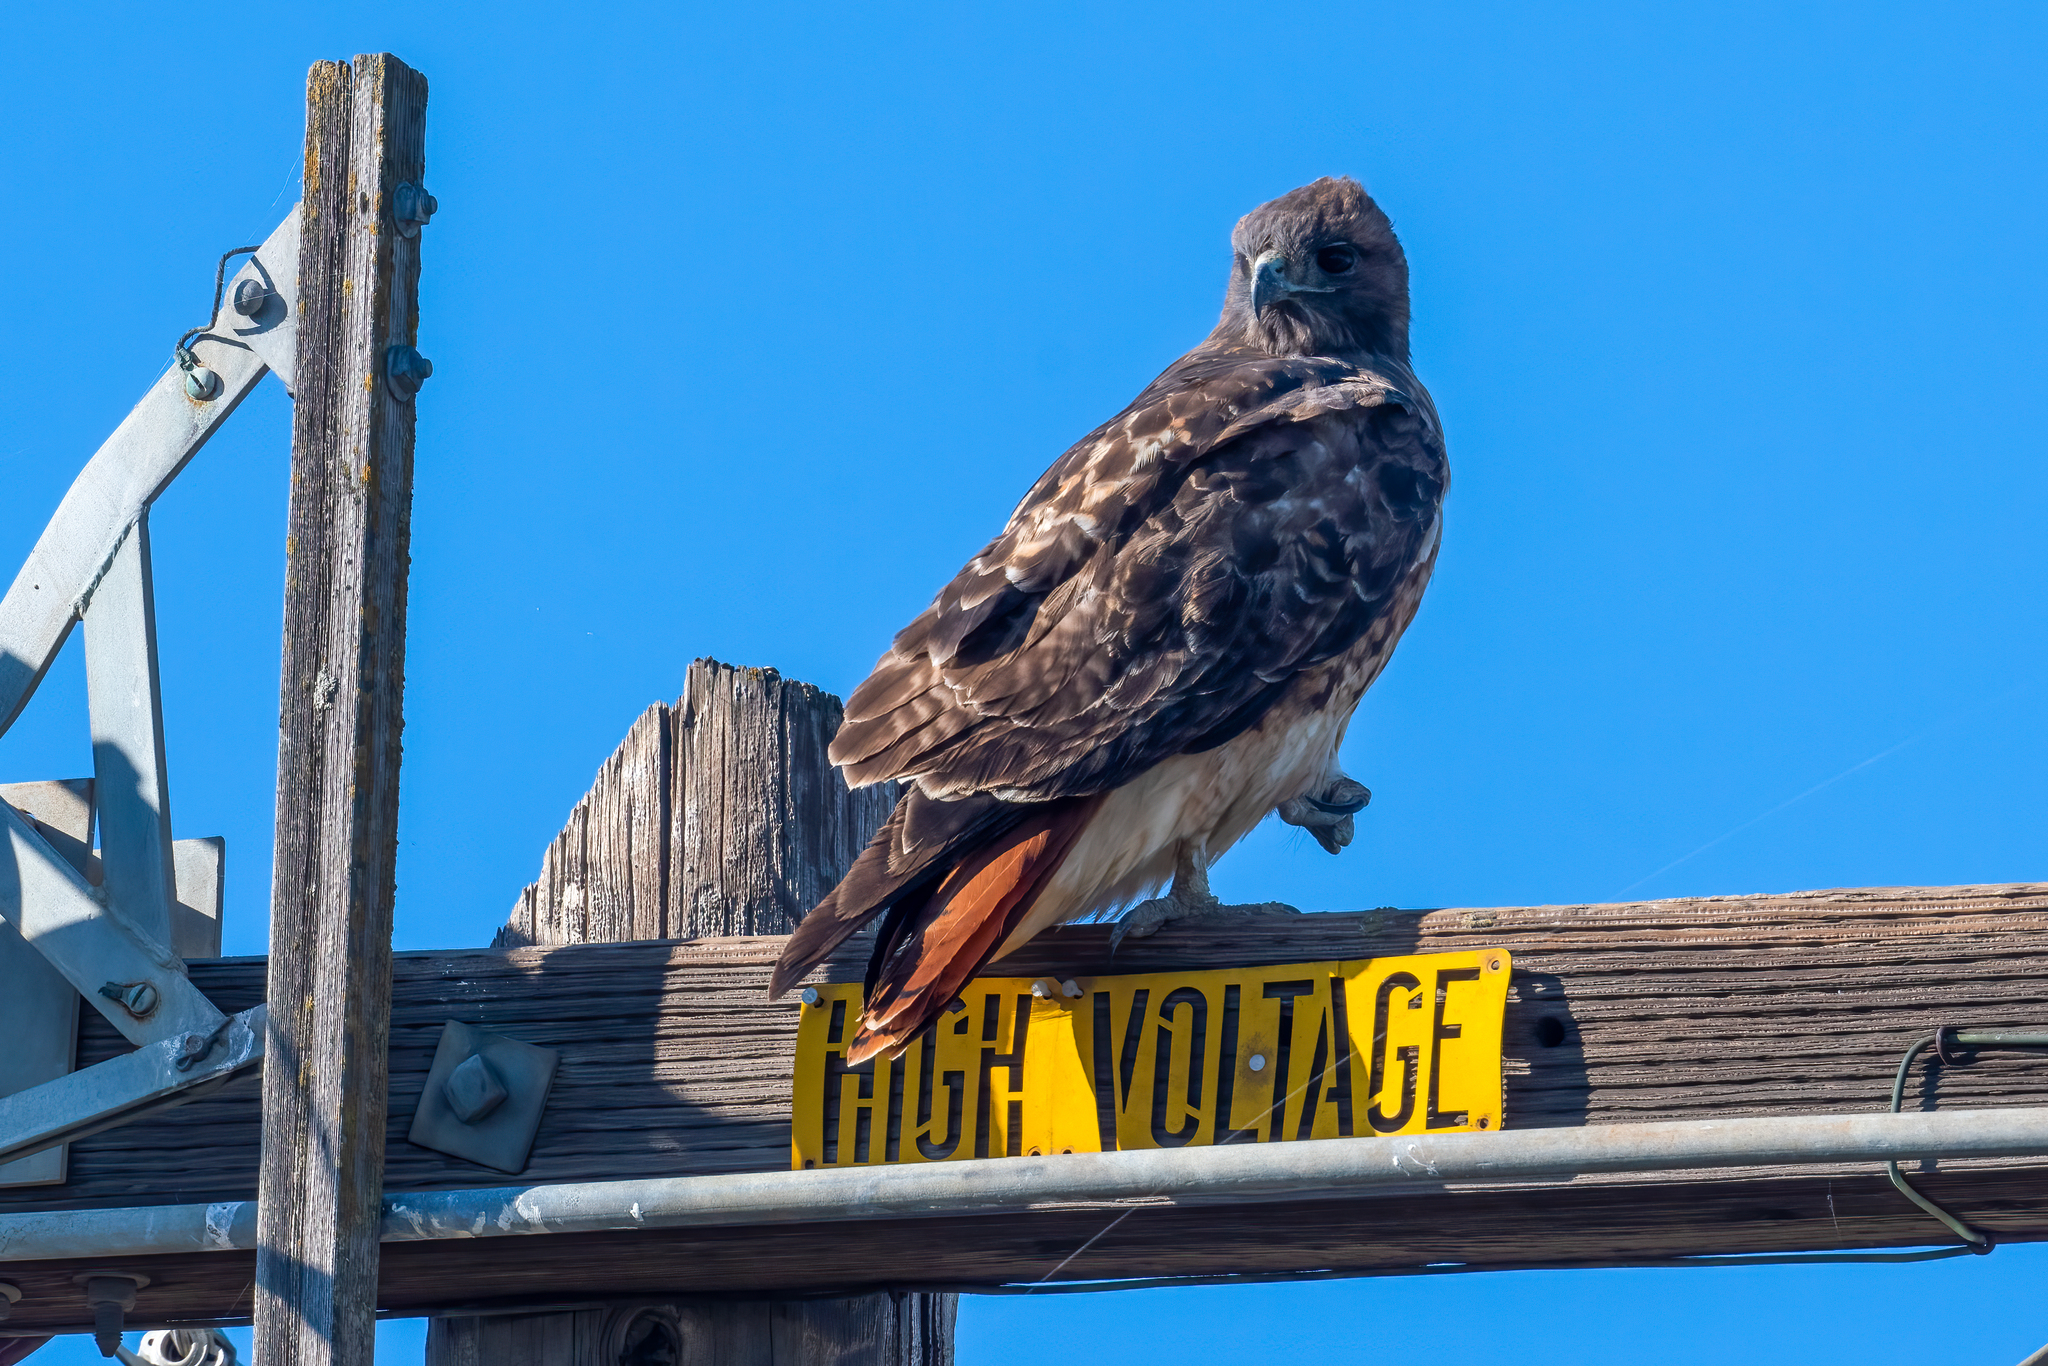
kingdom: Animalia
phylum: Chordata
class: Aves
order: Accipitriformes
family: Accipitridae
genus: Buteo
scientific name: Buteo jamaicensis
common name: Red-tailed hawk
